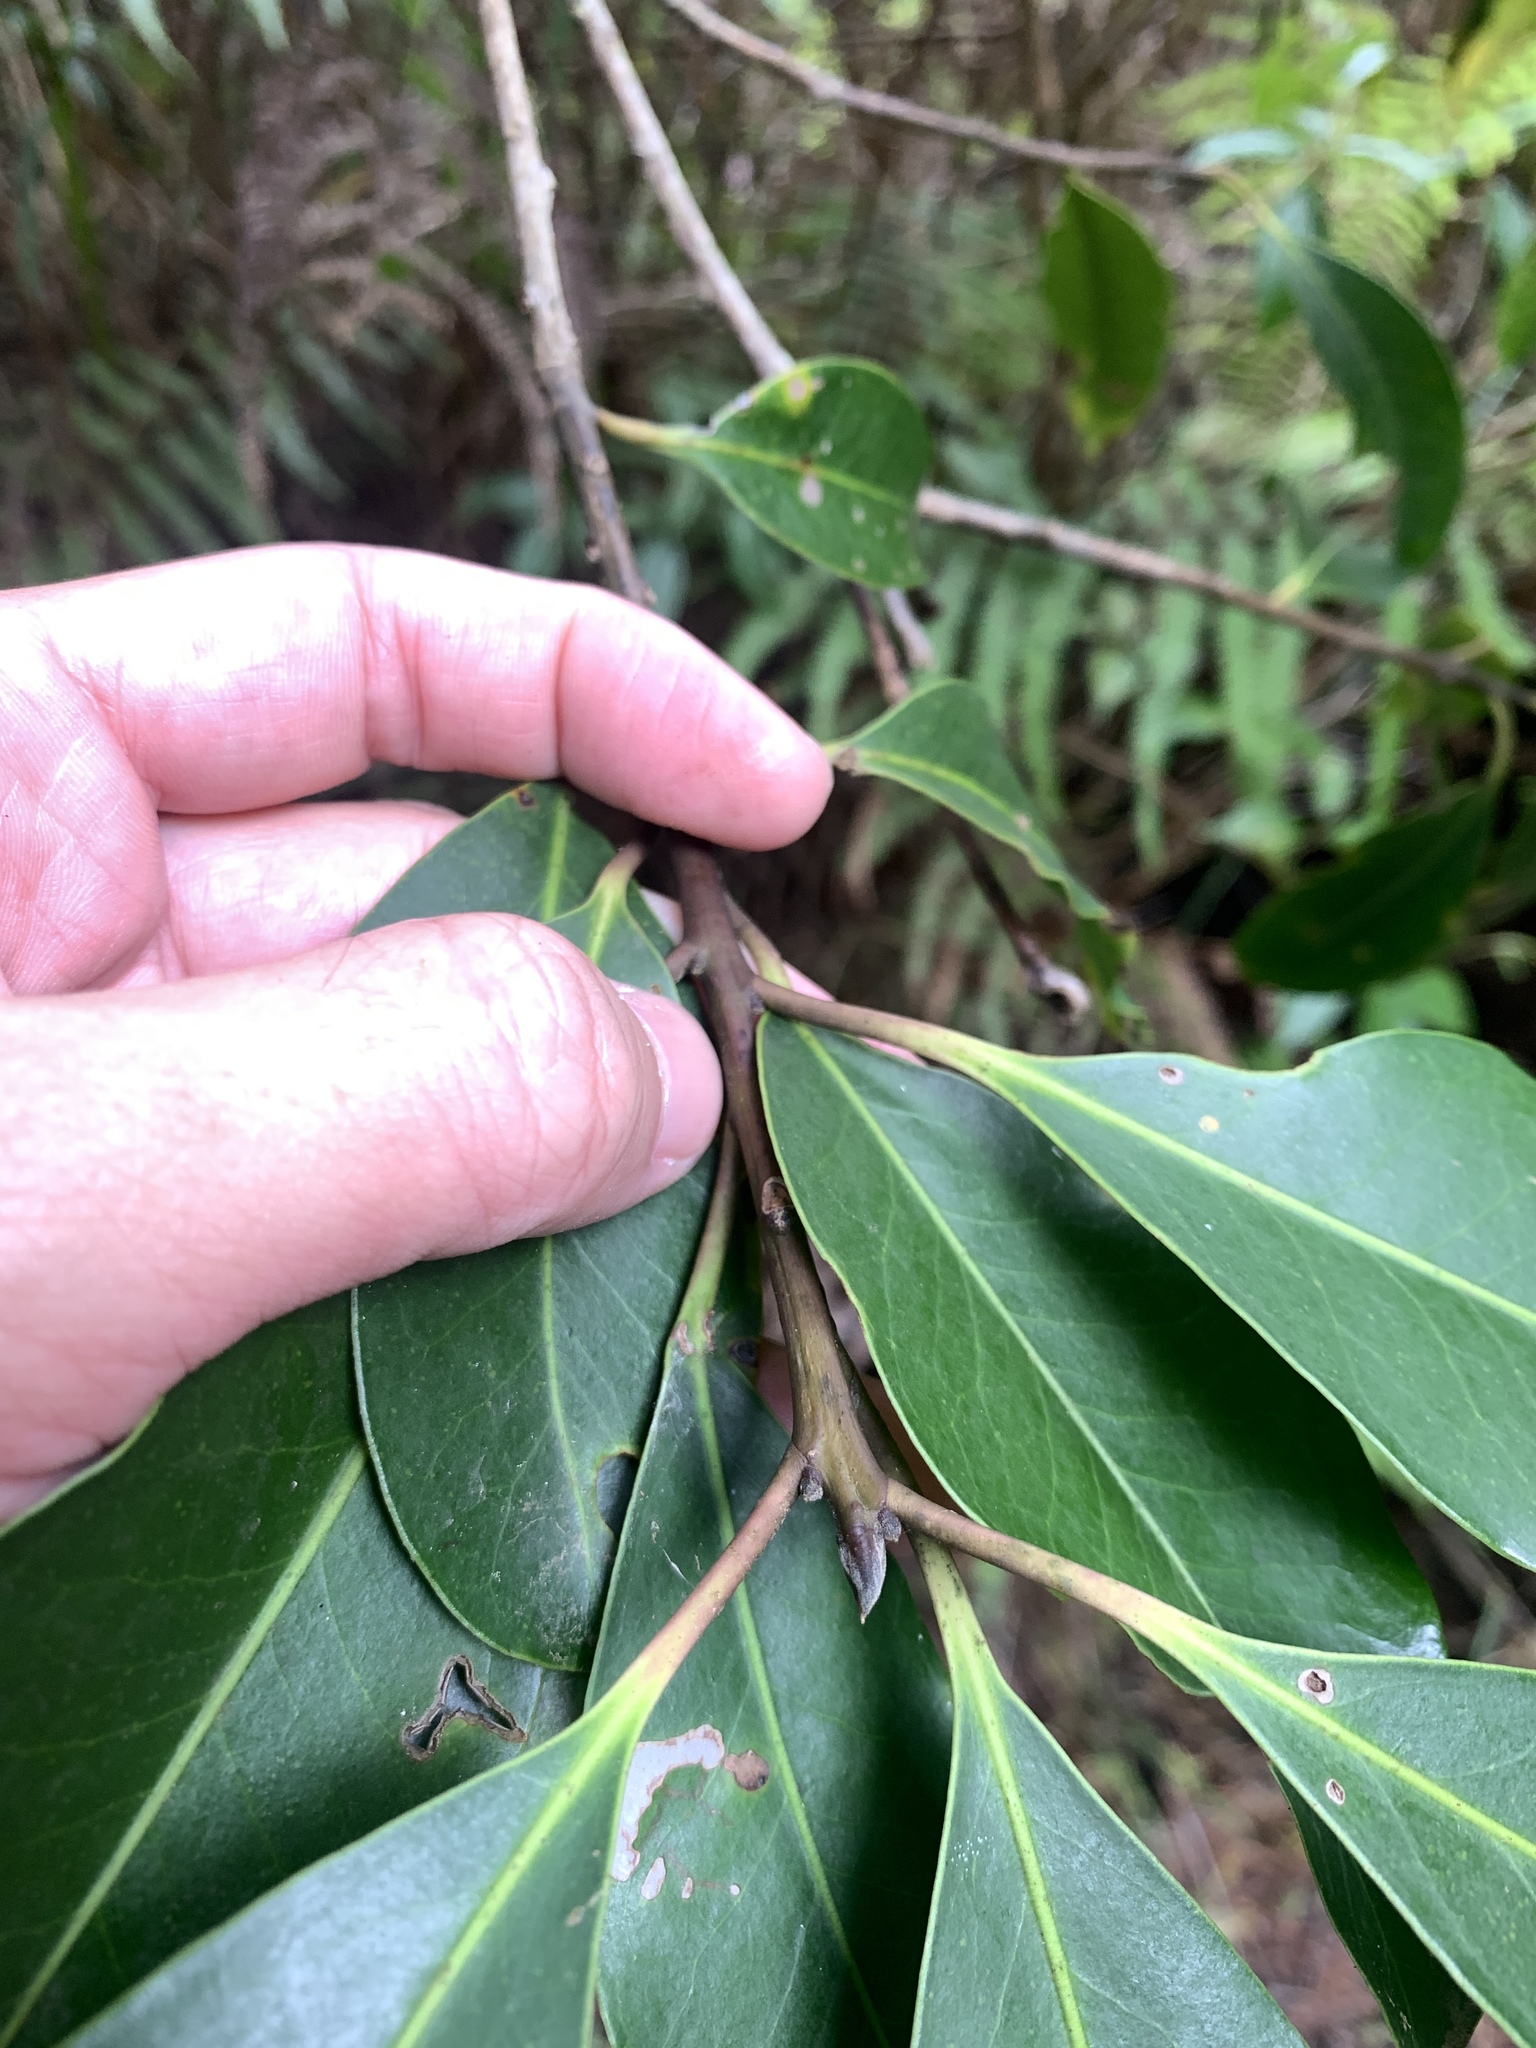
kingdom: Plantae
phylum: Tracheophyta
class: Magnoliopsida
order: Aquifoliales
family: Aquifoliaceae
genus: Ilex
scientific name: Ilex tugitakayamensis
